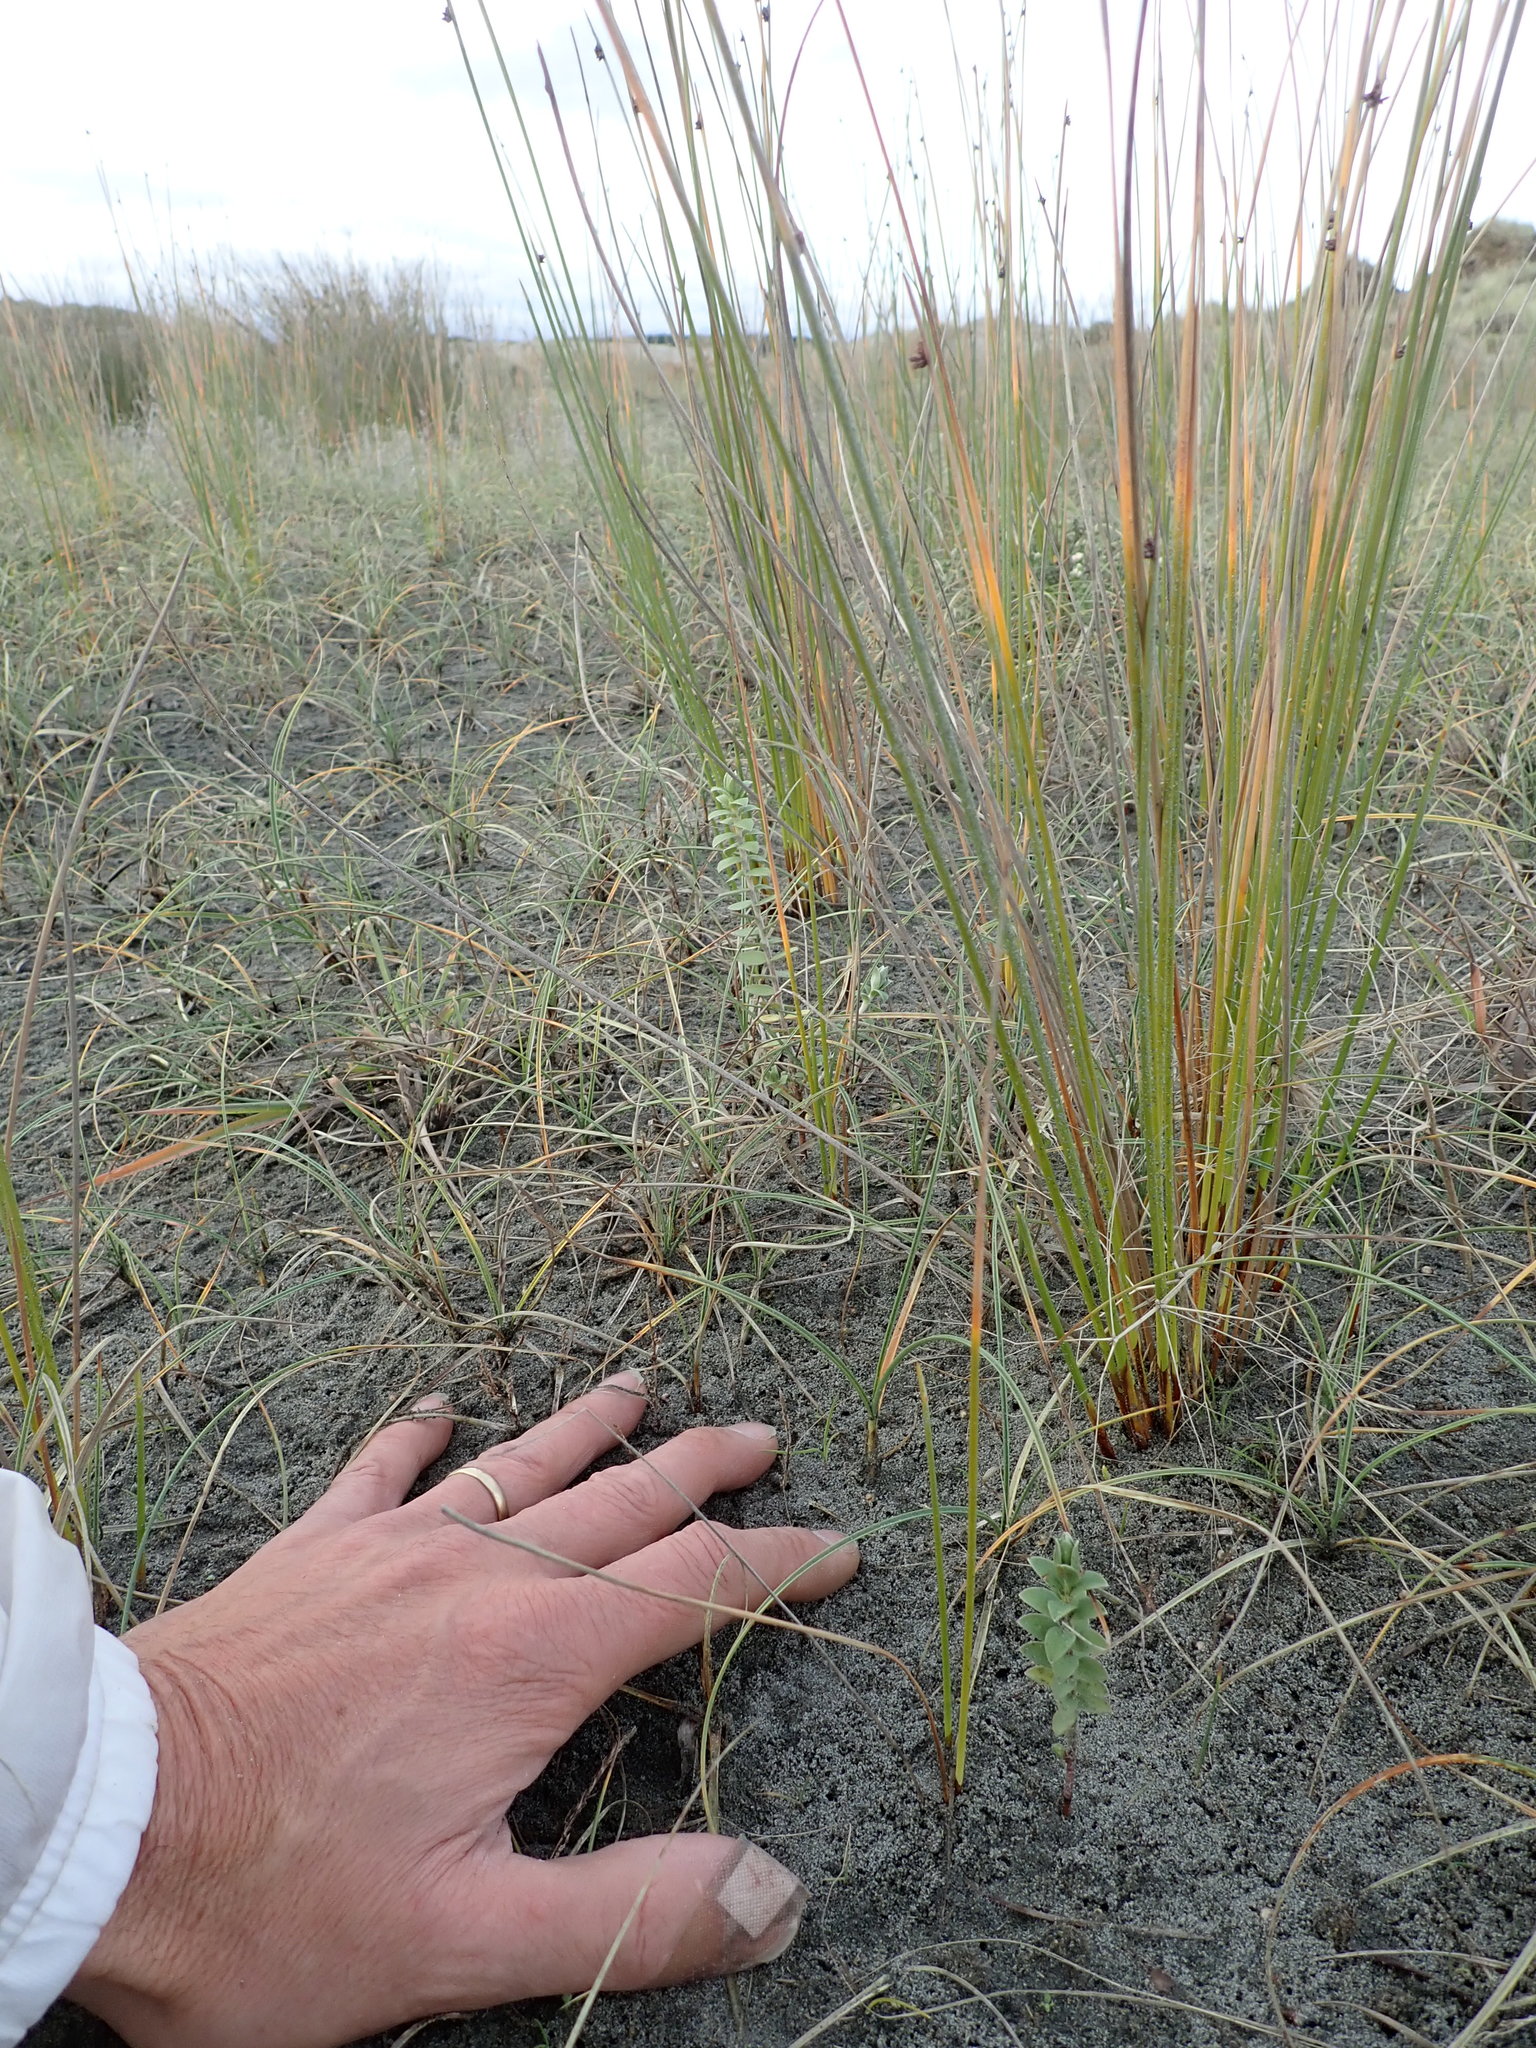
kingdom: Plantae
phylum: Tracheophyta
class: Magnoliopsida
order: Malvales
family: Thymelaeaceae
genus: Pimelea
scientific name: Pimelea villosa
